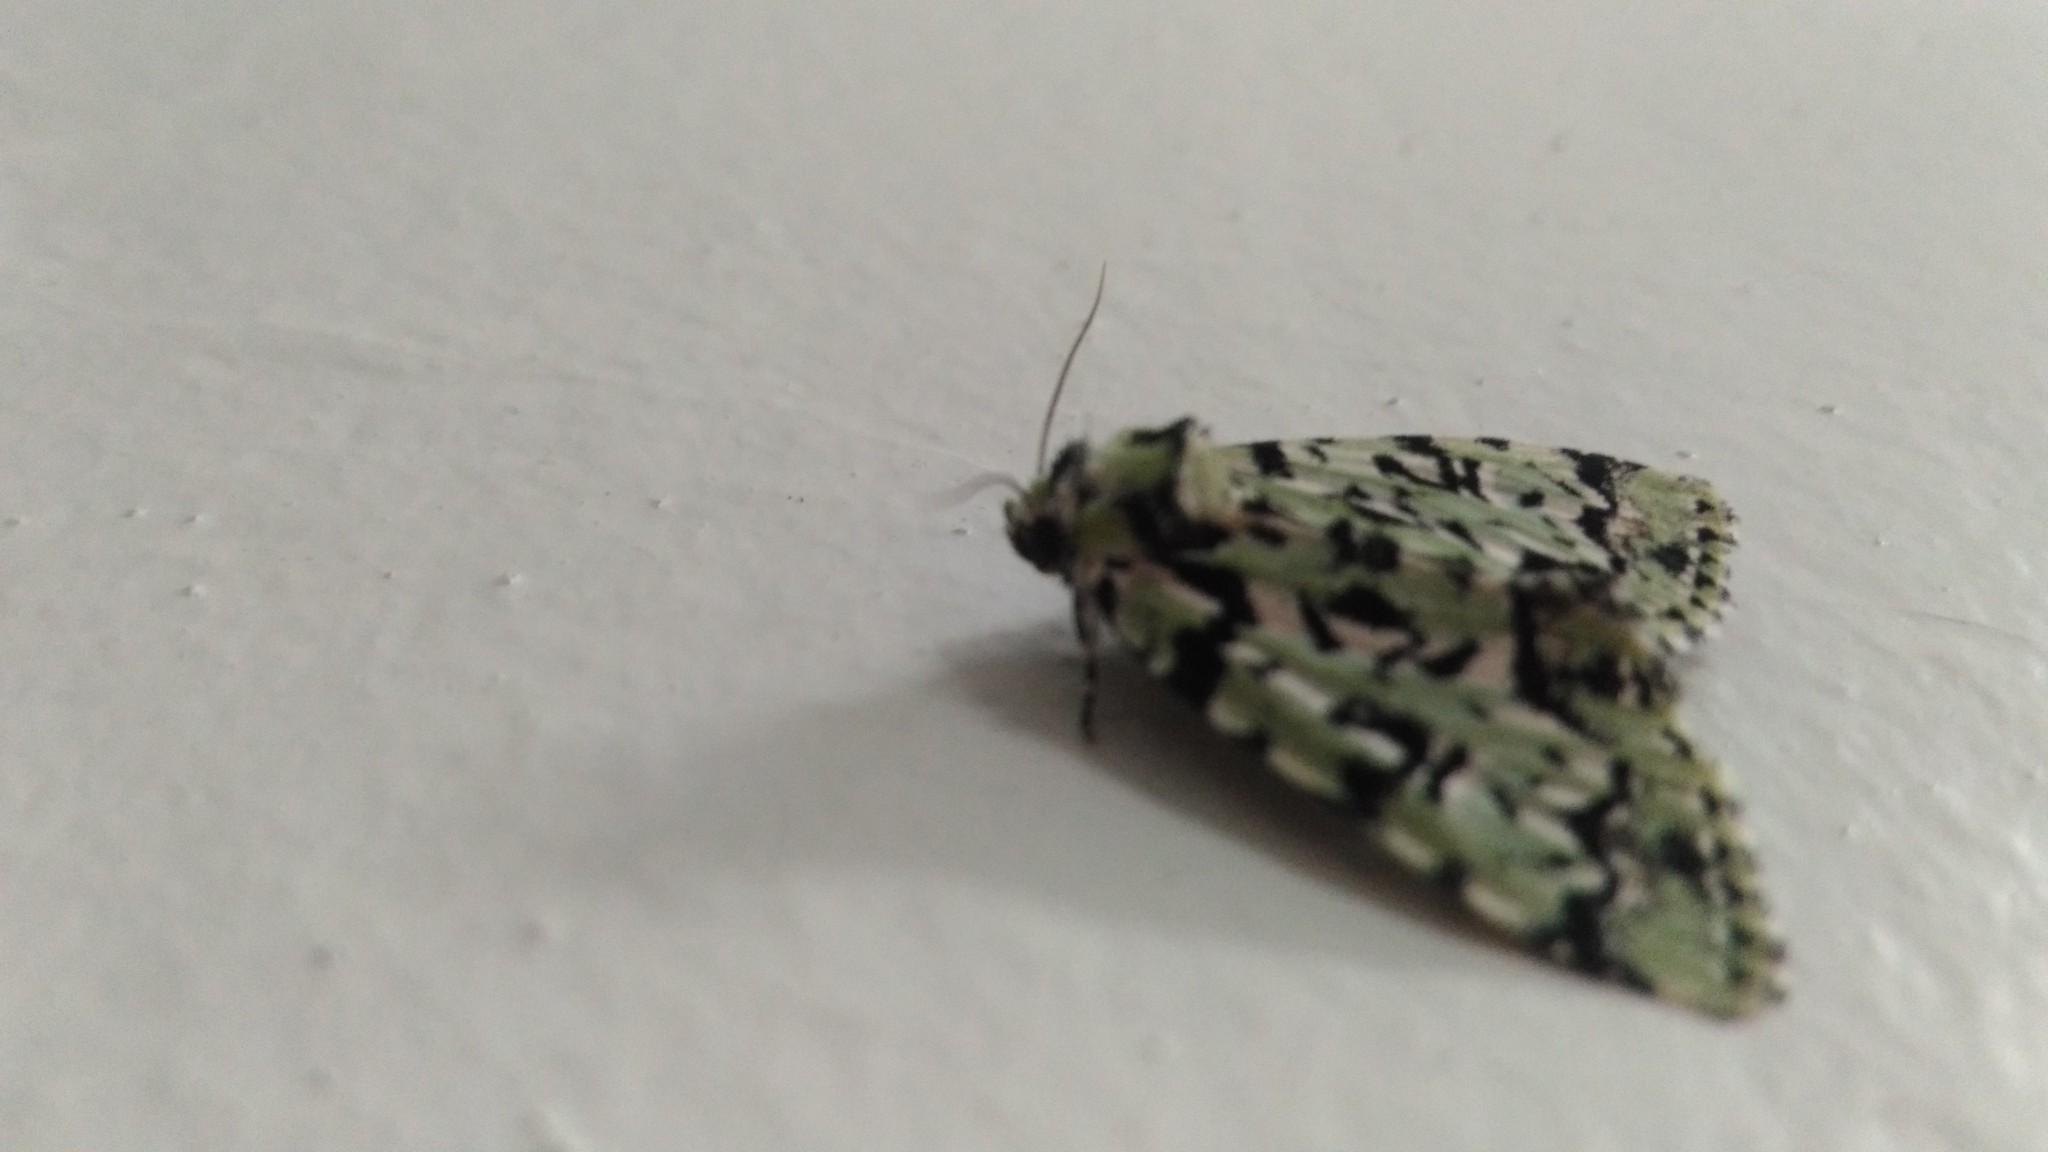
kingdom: Animalia
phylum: Arthropoda
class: Insecta
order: Lepidoptera
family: Noctuidae
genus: Moma
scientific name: Moma alpium
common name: Scarce merveille du jour
